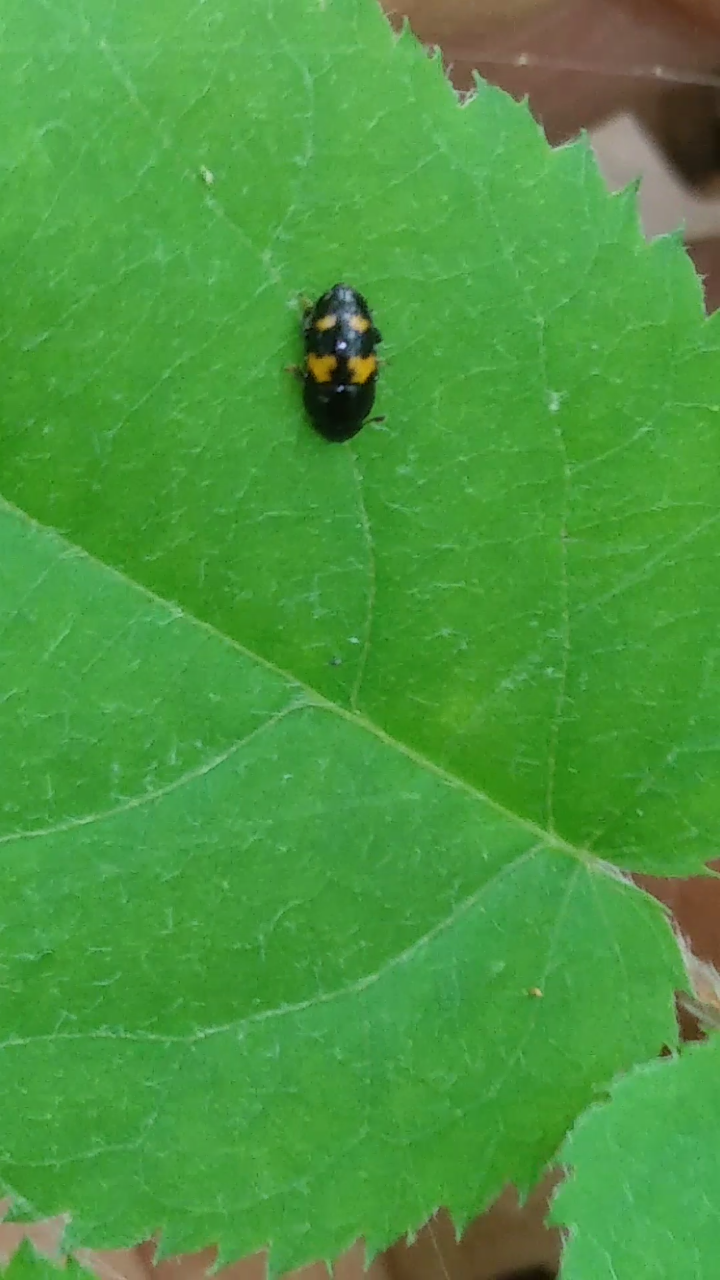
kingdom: Animalia
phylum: Arthropoda
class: Insecta
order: Coleoptera
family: Nitidulidae
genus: Glischrochilus
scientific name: Glischrochilus fasciatus
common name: Picnic beetle
